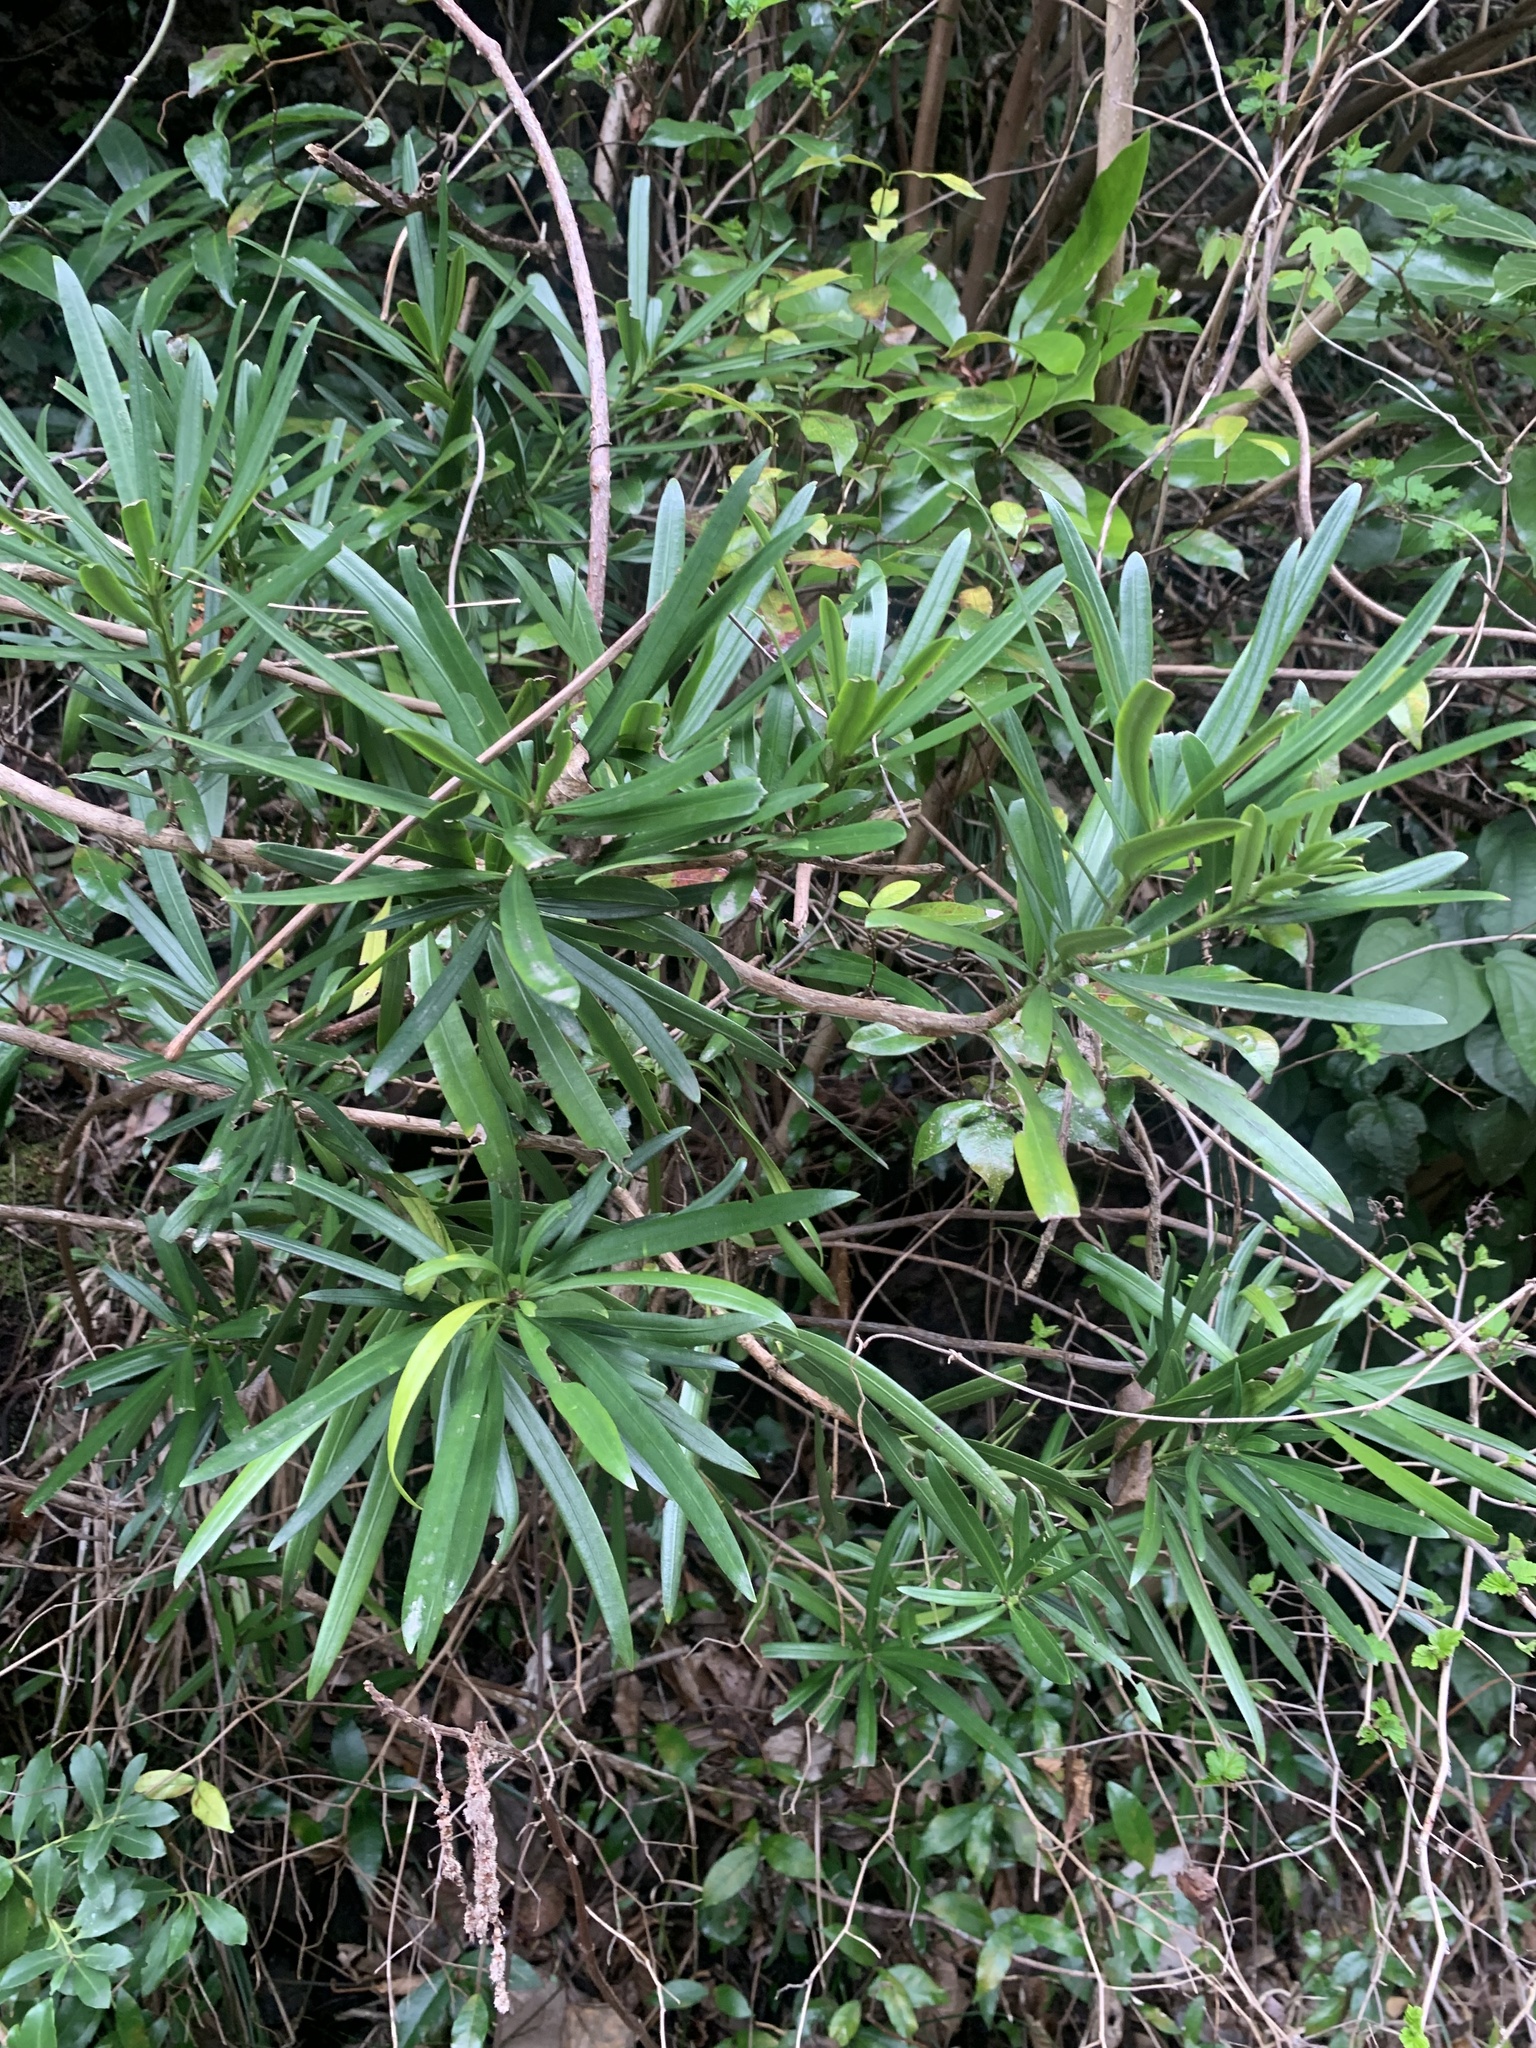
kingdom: Plantae
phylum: Tracheophyta
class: Pinopsida
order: Pinales
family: Podocarpaceae
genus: Podocarpus
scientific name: Podocarpus macrophyllus
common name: Japanese yew
